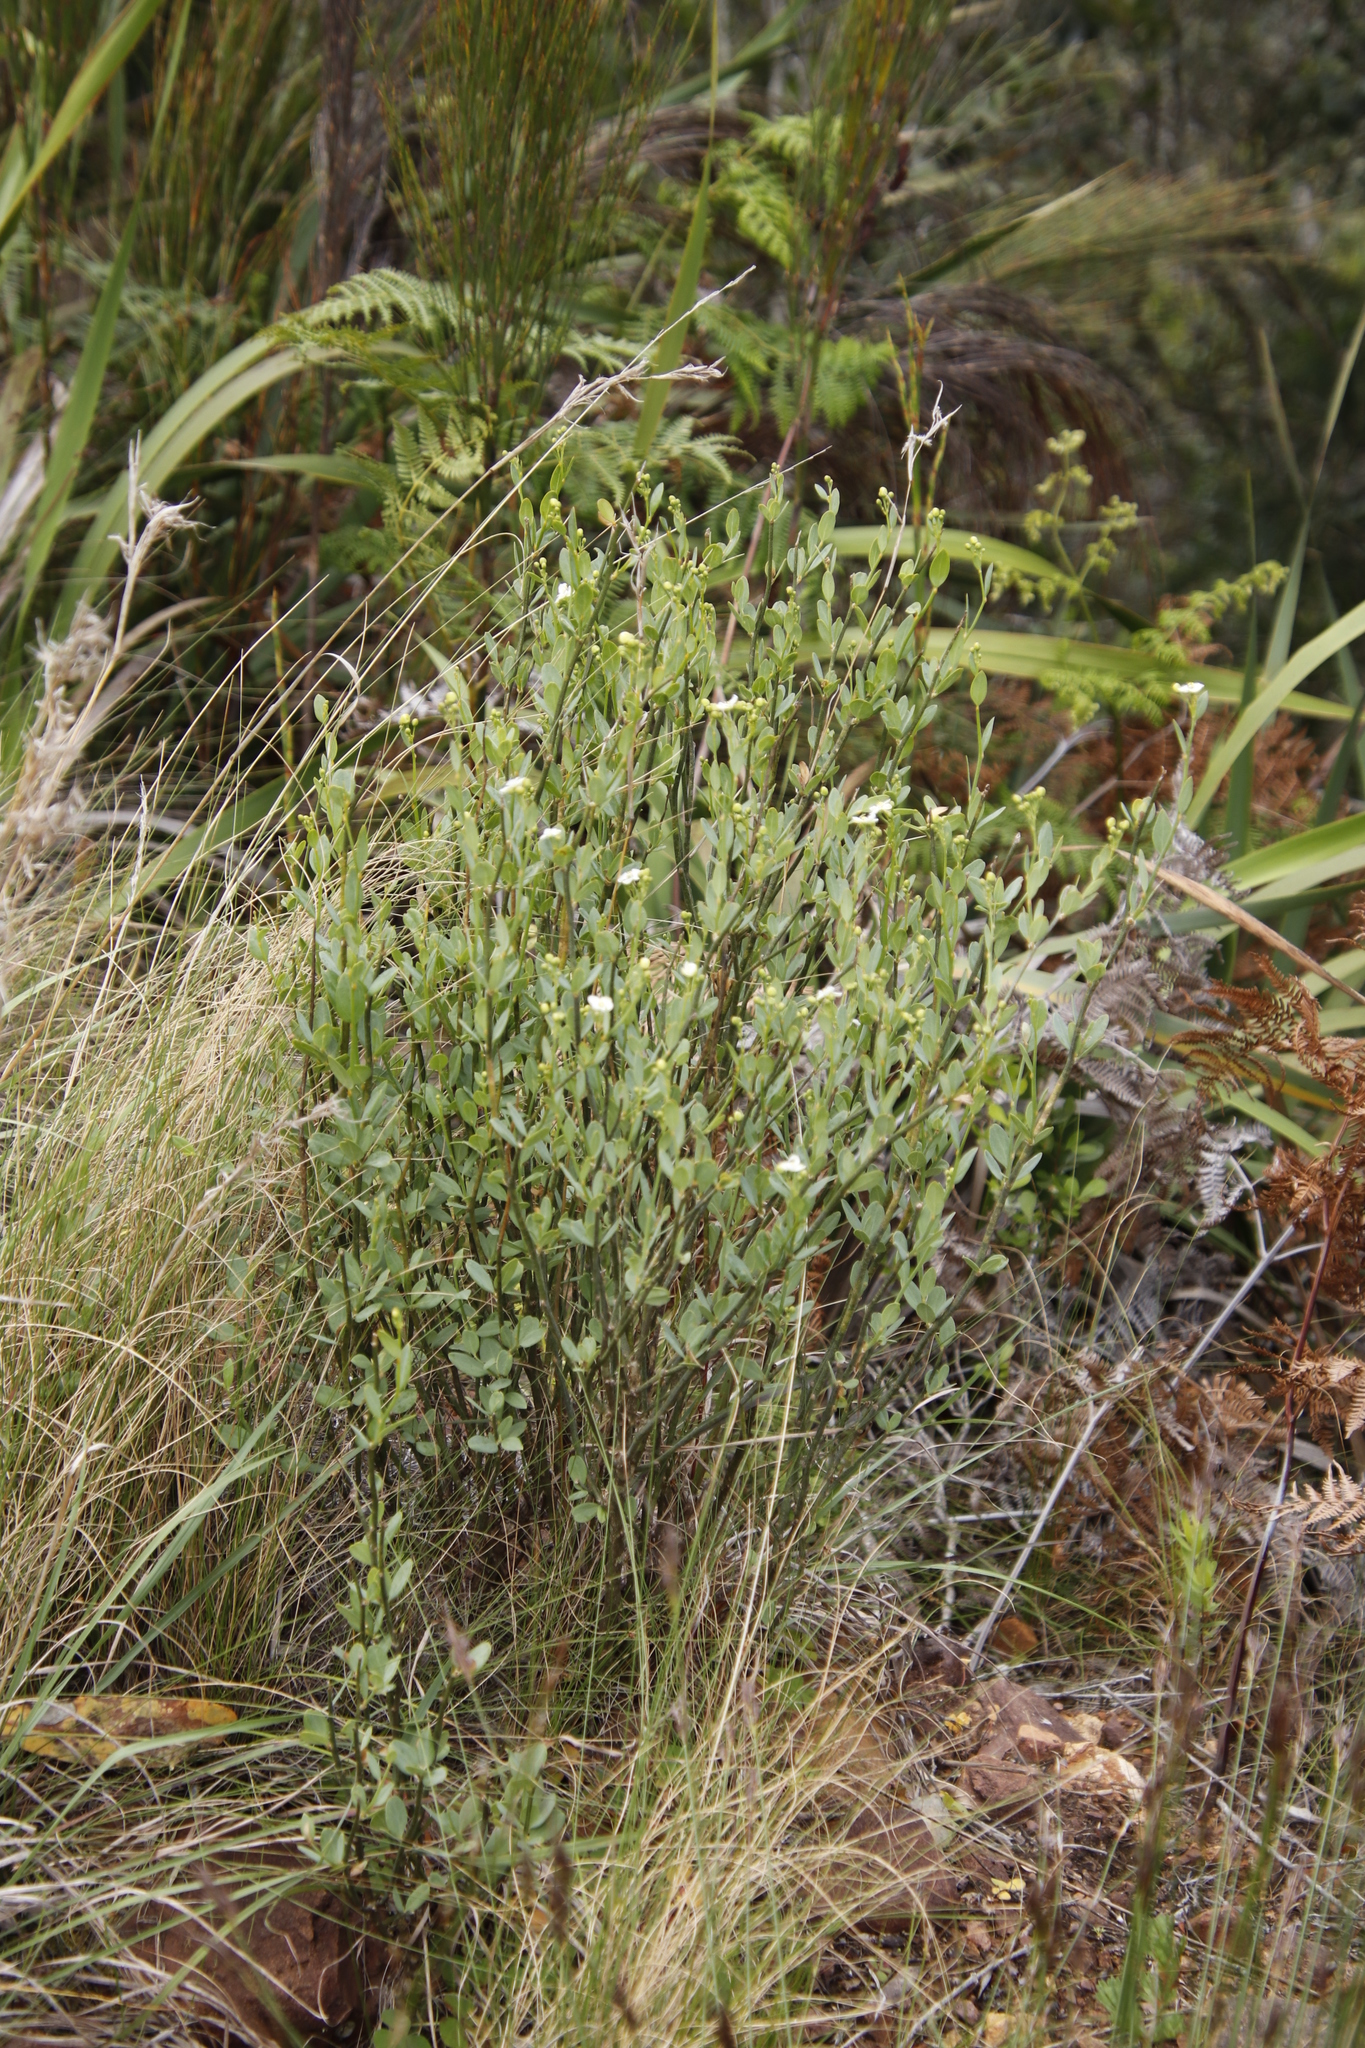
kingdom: Plantae
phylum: Tracheophyta
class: Magnoliopsida
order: Solanales
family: Montiniaceae
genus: Montinia
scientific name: Montinia caryophyllacea
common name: Wild clove-bush
